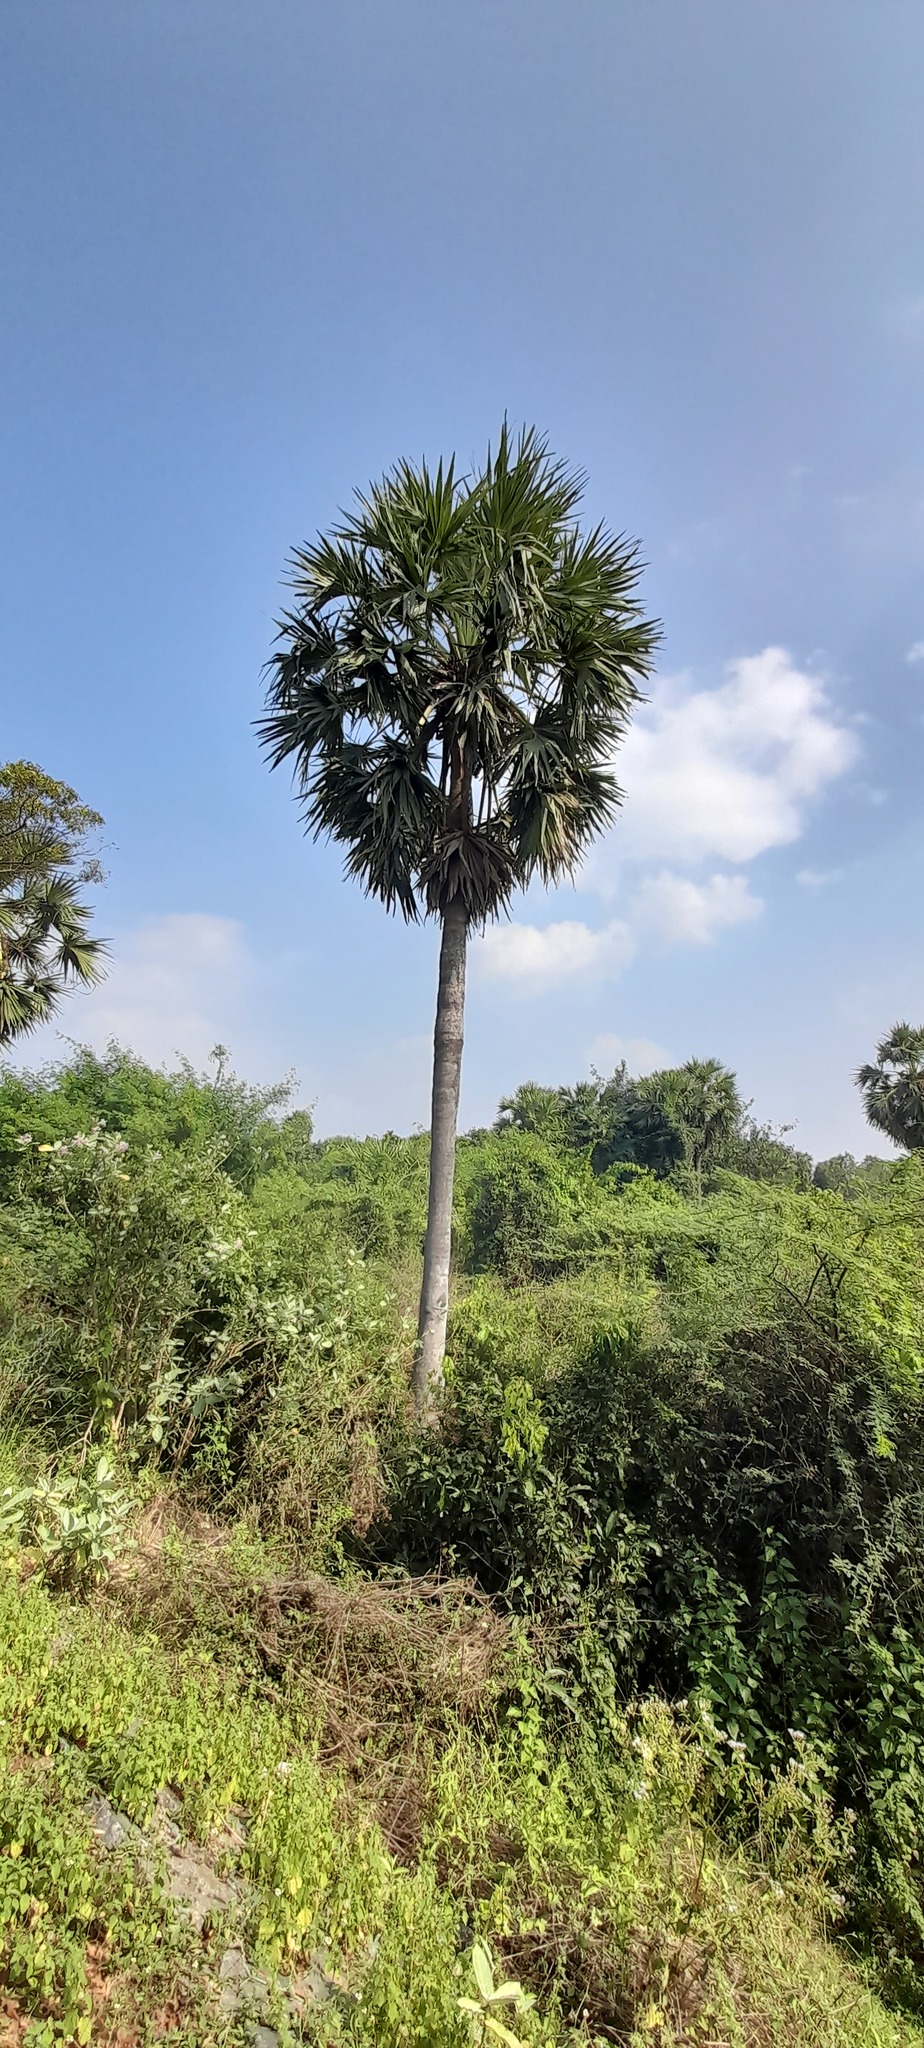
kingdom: Plantae
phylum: Tracheophyta
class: Liliopsida
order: Arecales
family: Arecaceae
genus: Borassus
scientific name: Borassus flabellifer
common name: Palmyra palm
